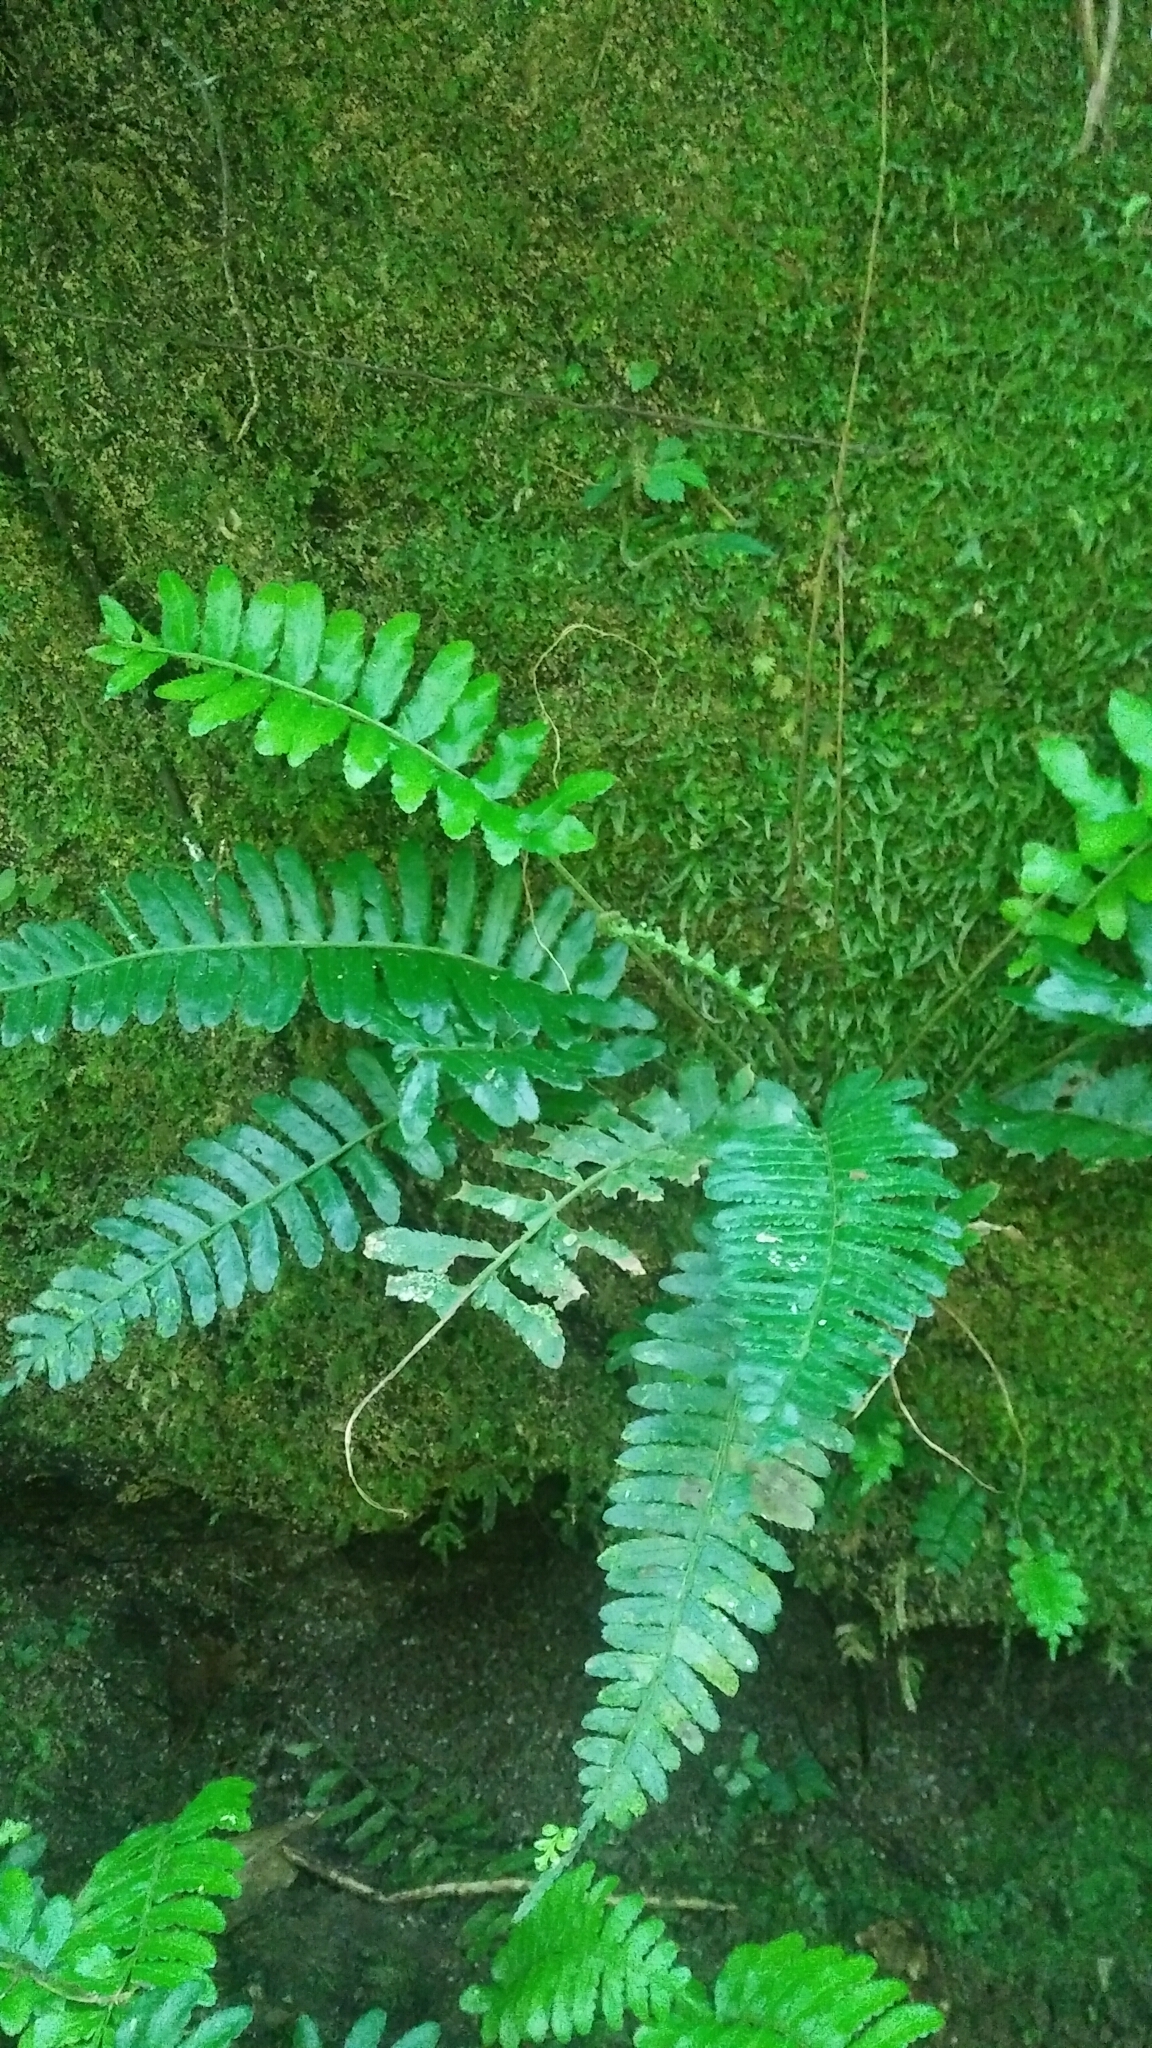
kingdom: Plantae
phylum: Tracheophyta
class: Polypodiopsida
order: Polypodiales
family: Dryopteridaceae
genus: Bolbitis
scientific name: Bolbitis appendiculata
